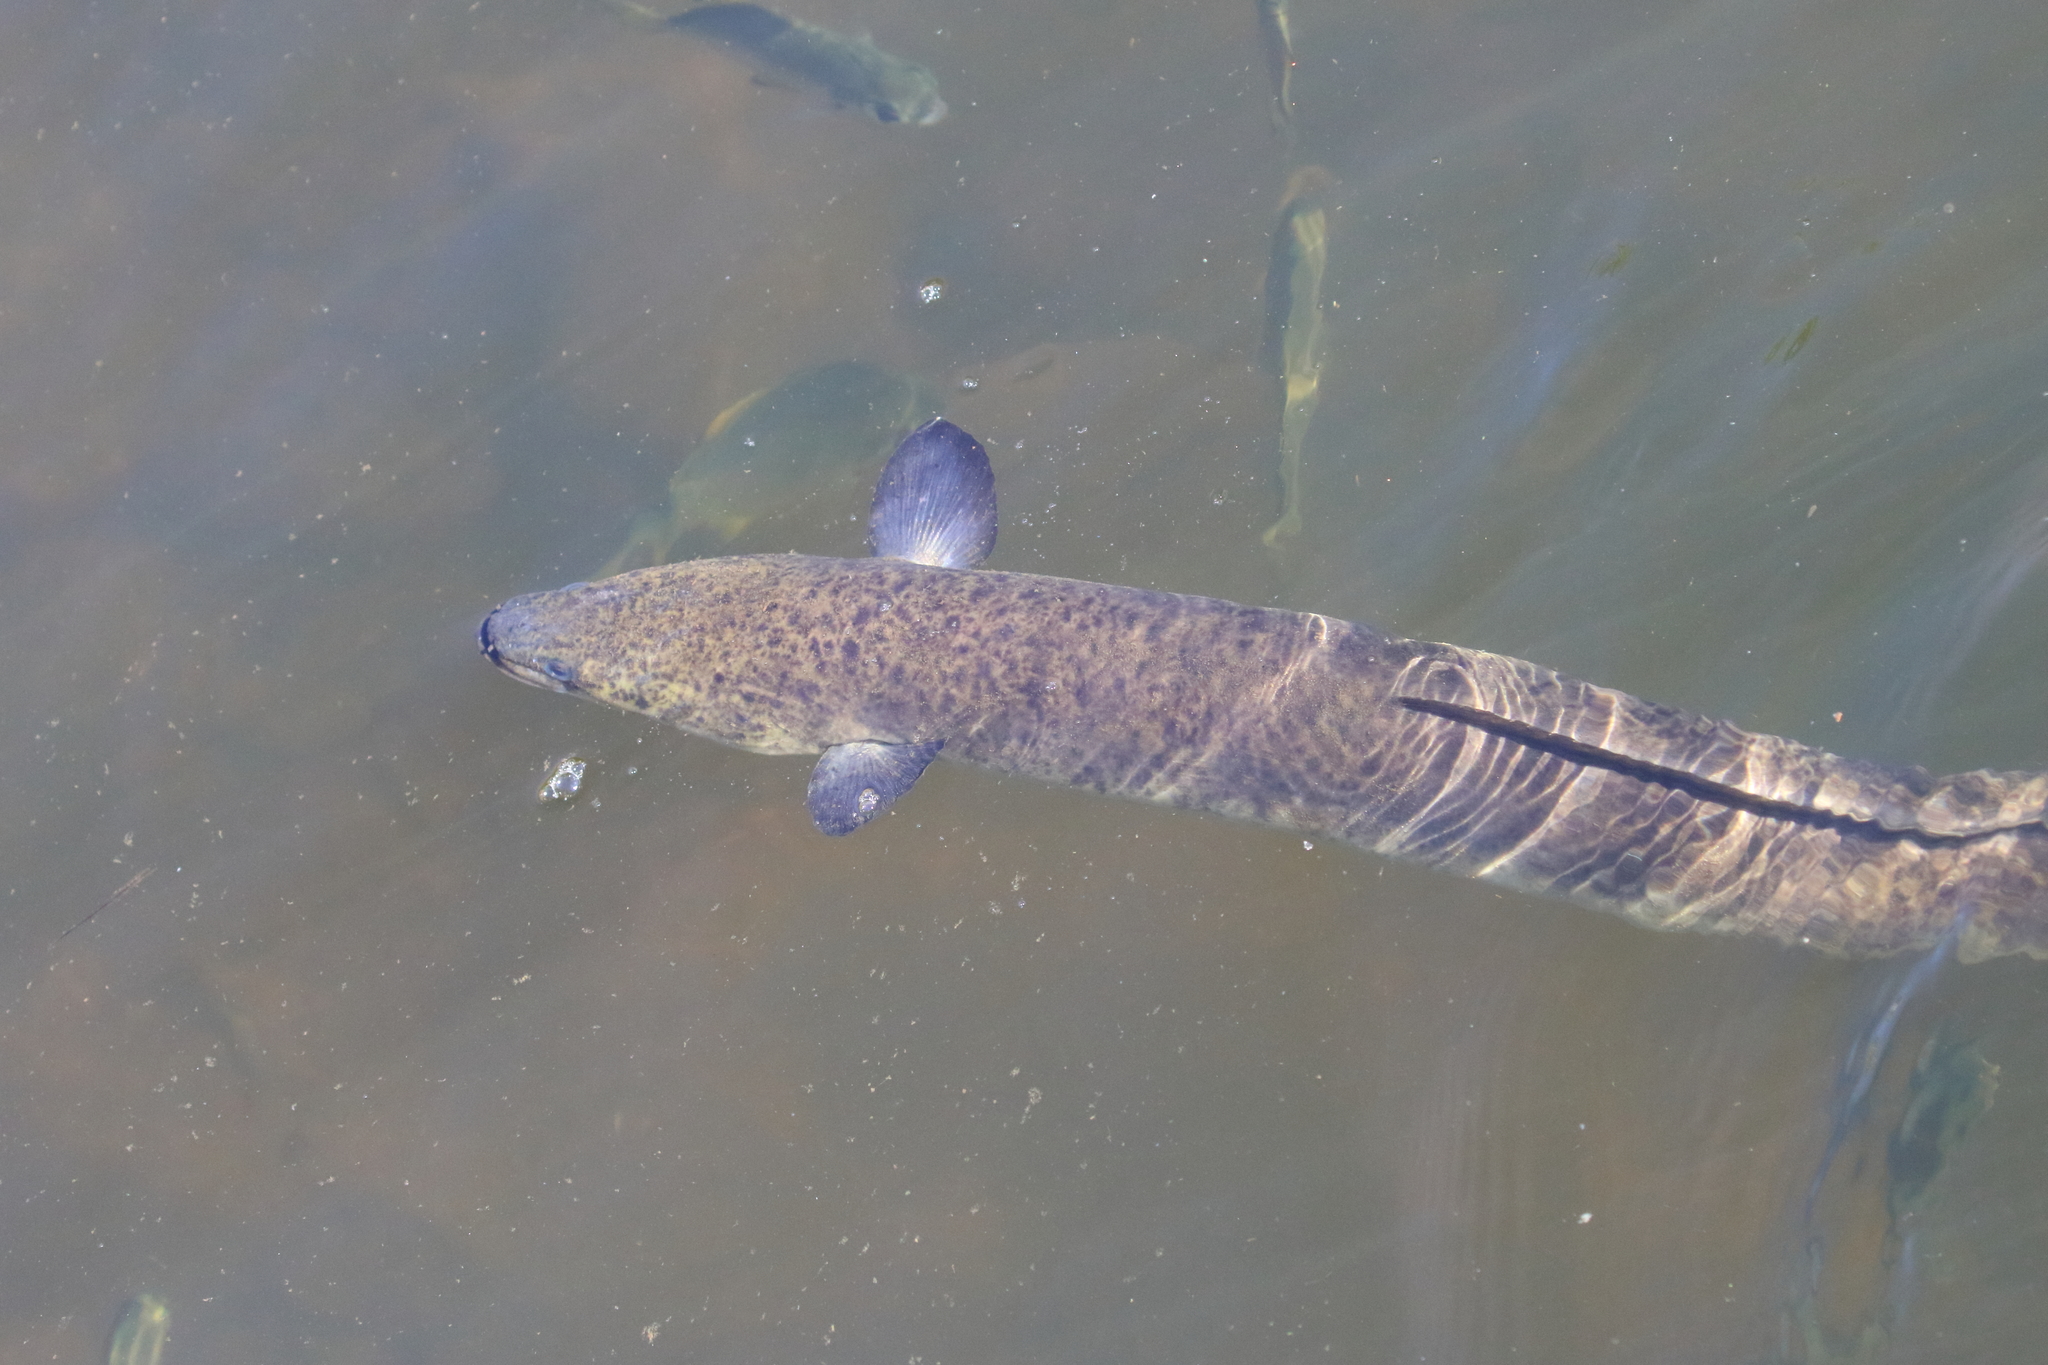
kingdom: Animalia
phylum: Chordata
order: Anguilliformes
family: Anguillidae
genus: Anguilla
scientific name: Anguilla reinhardtii
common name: Longfin eel
